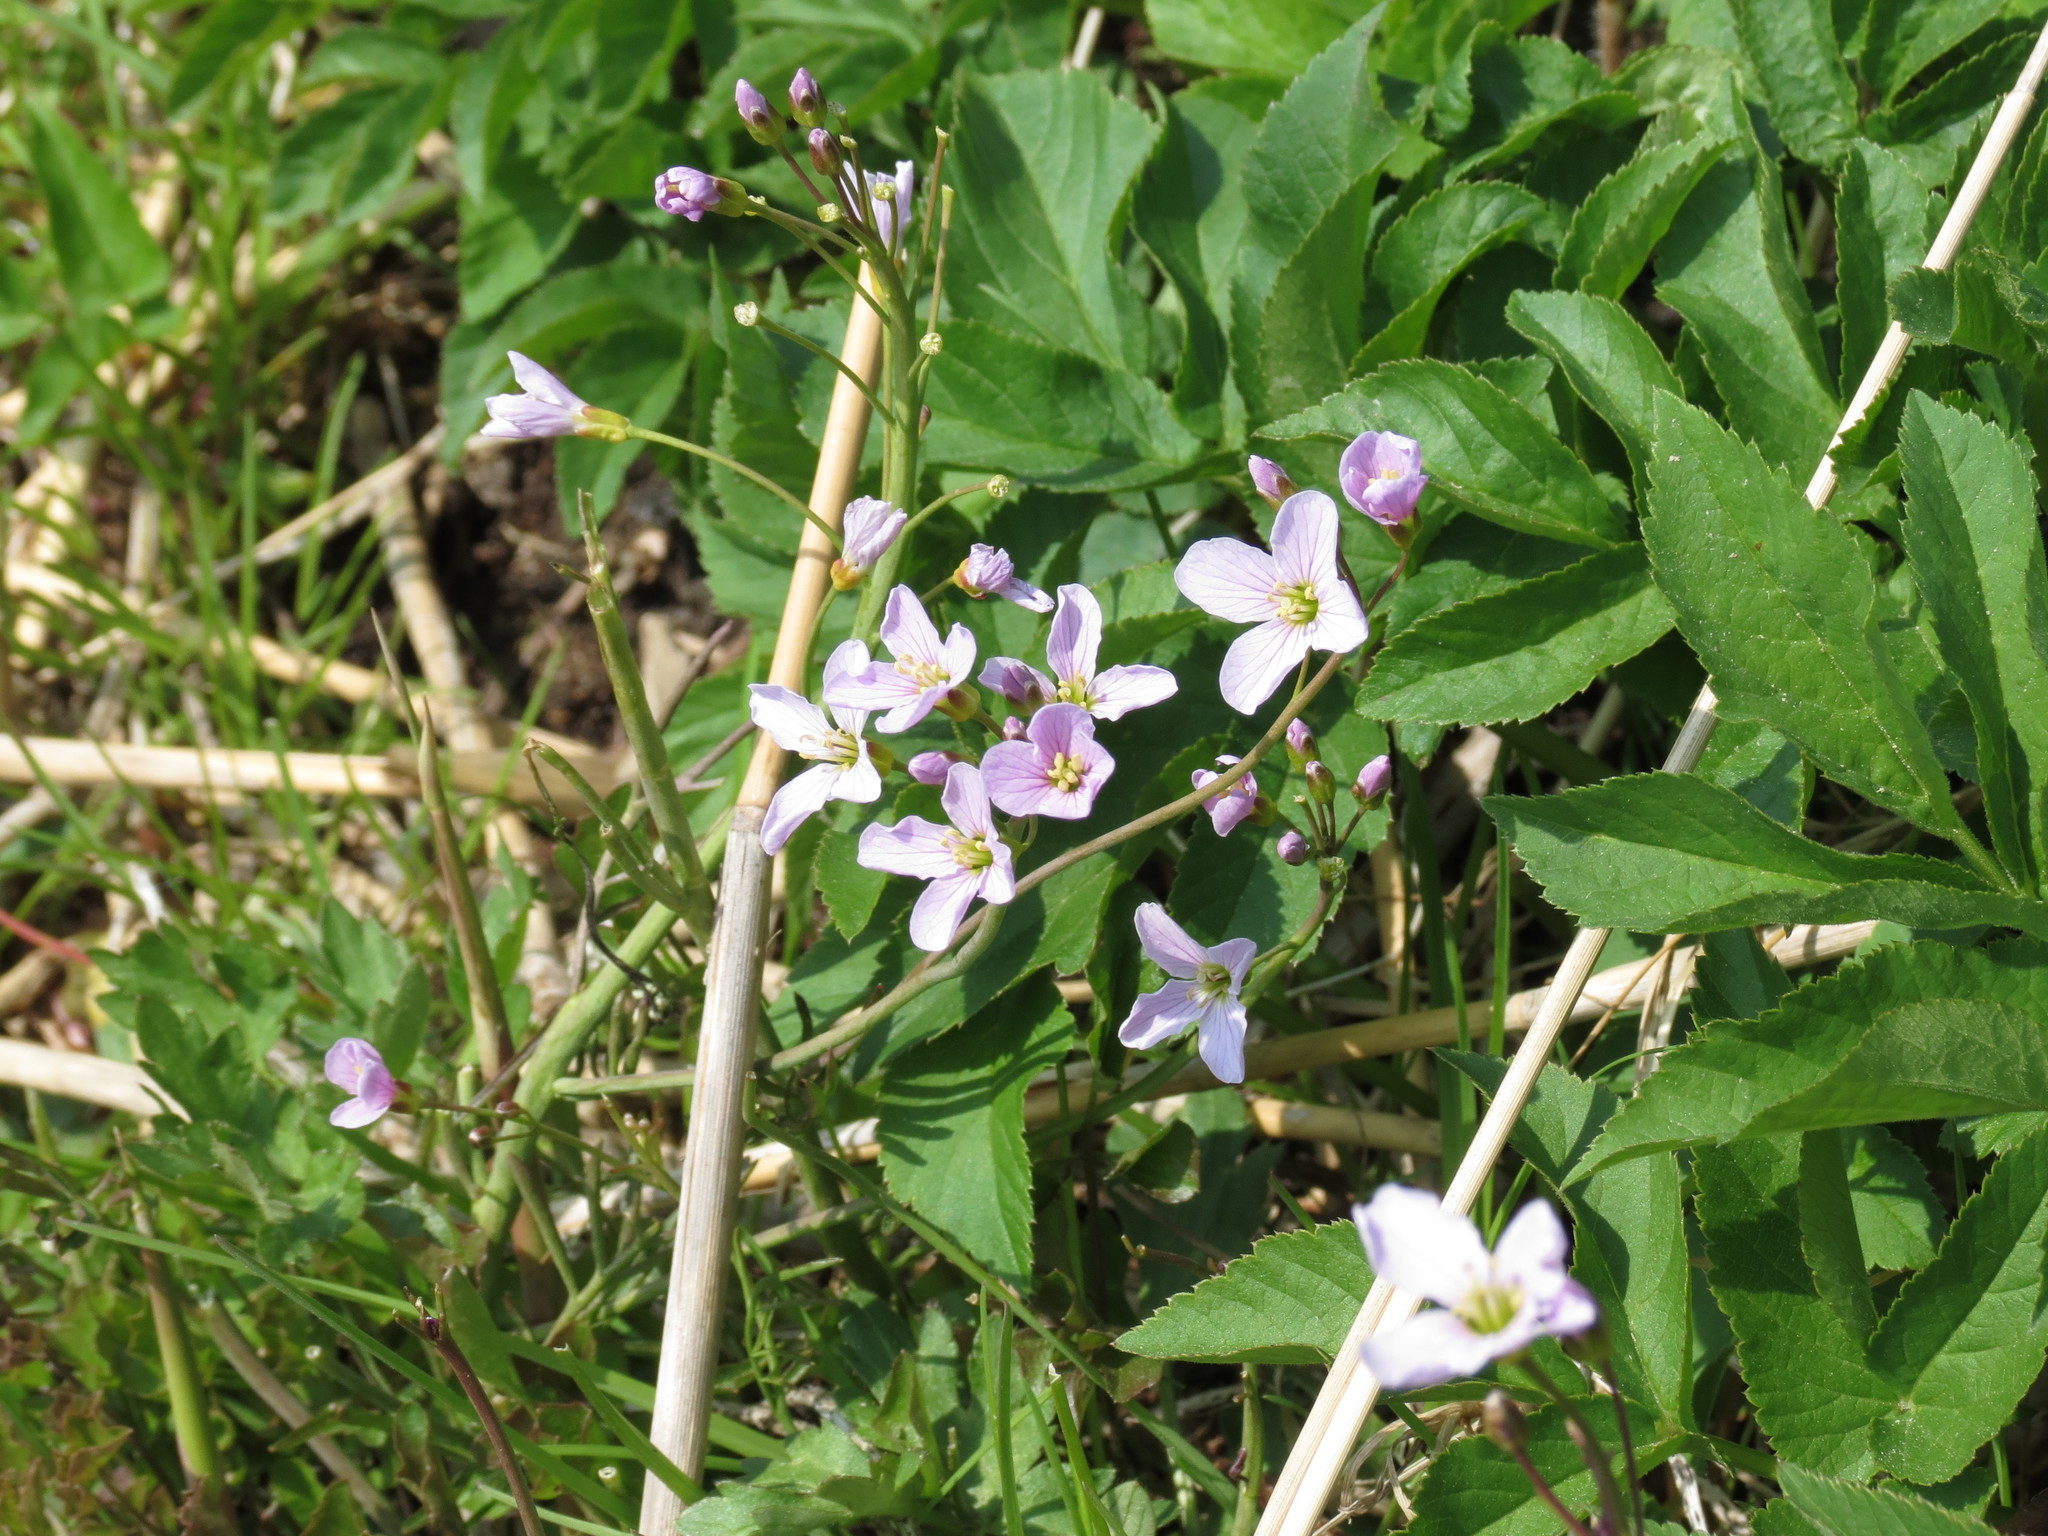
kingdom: Plantae
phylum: Tracheophyta
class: Magnoliopsida
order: Brassicales
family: Brassicaceae
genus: Cardamine
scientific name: Cardamine bulbifera
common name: Coralroot bittercress
